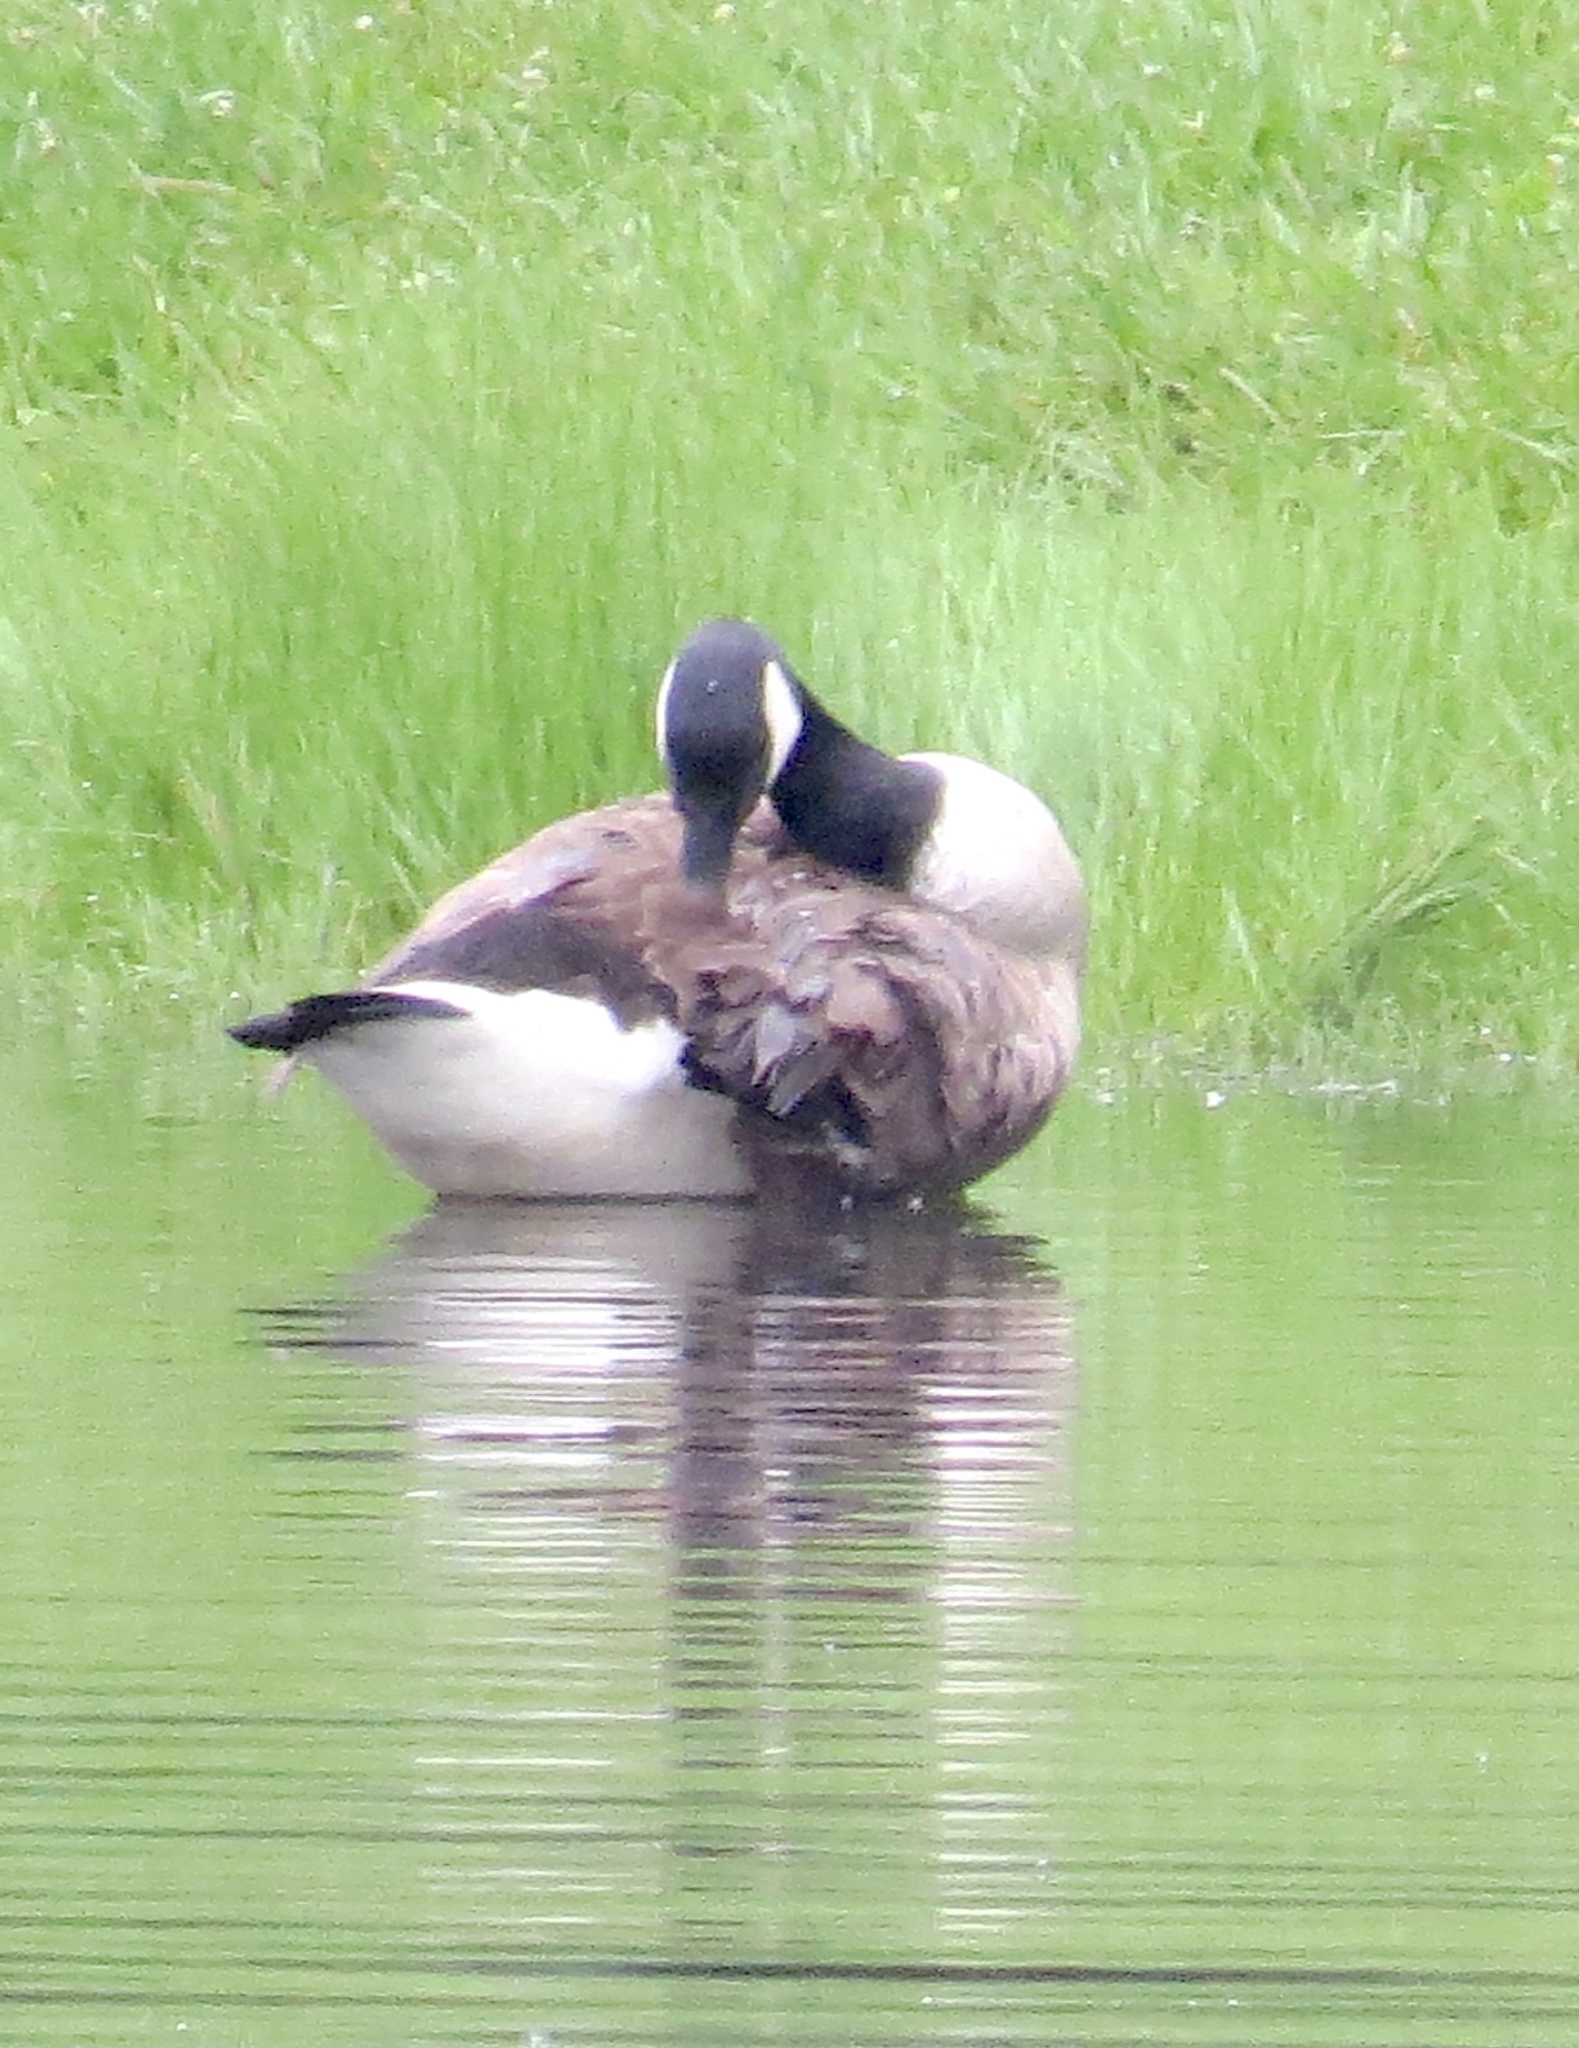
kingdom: Animalia
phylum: Chordata
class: Aves
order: Anseriformes
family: Anatidae
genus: Branta
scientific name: Branta canadensis
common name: Canada goose
